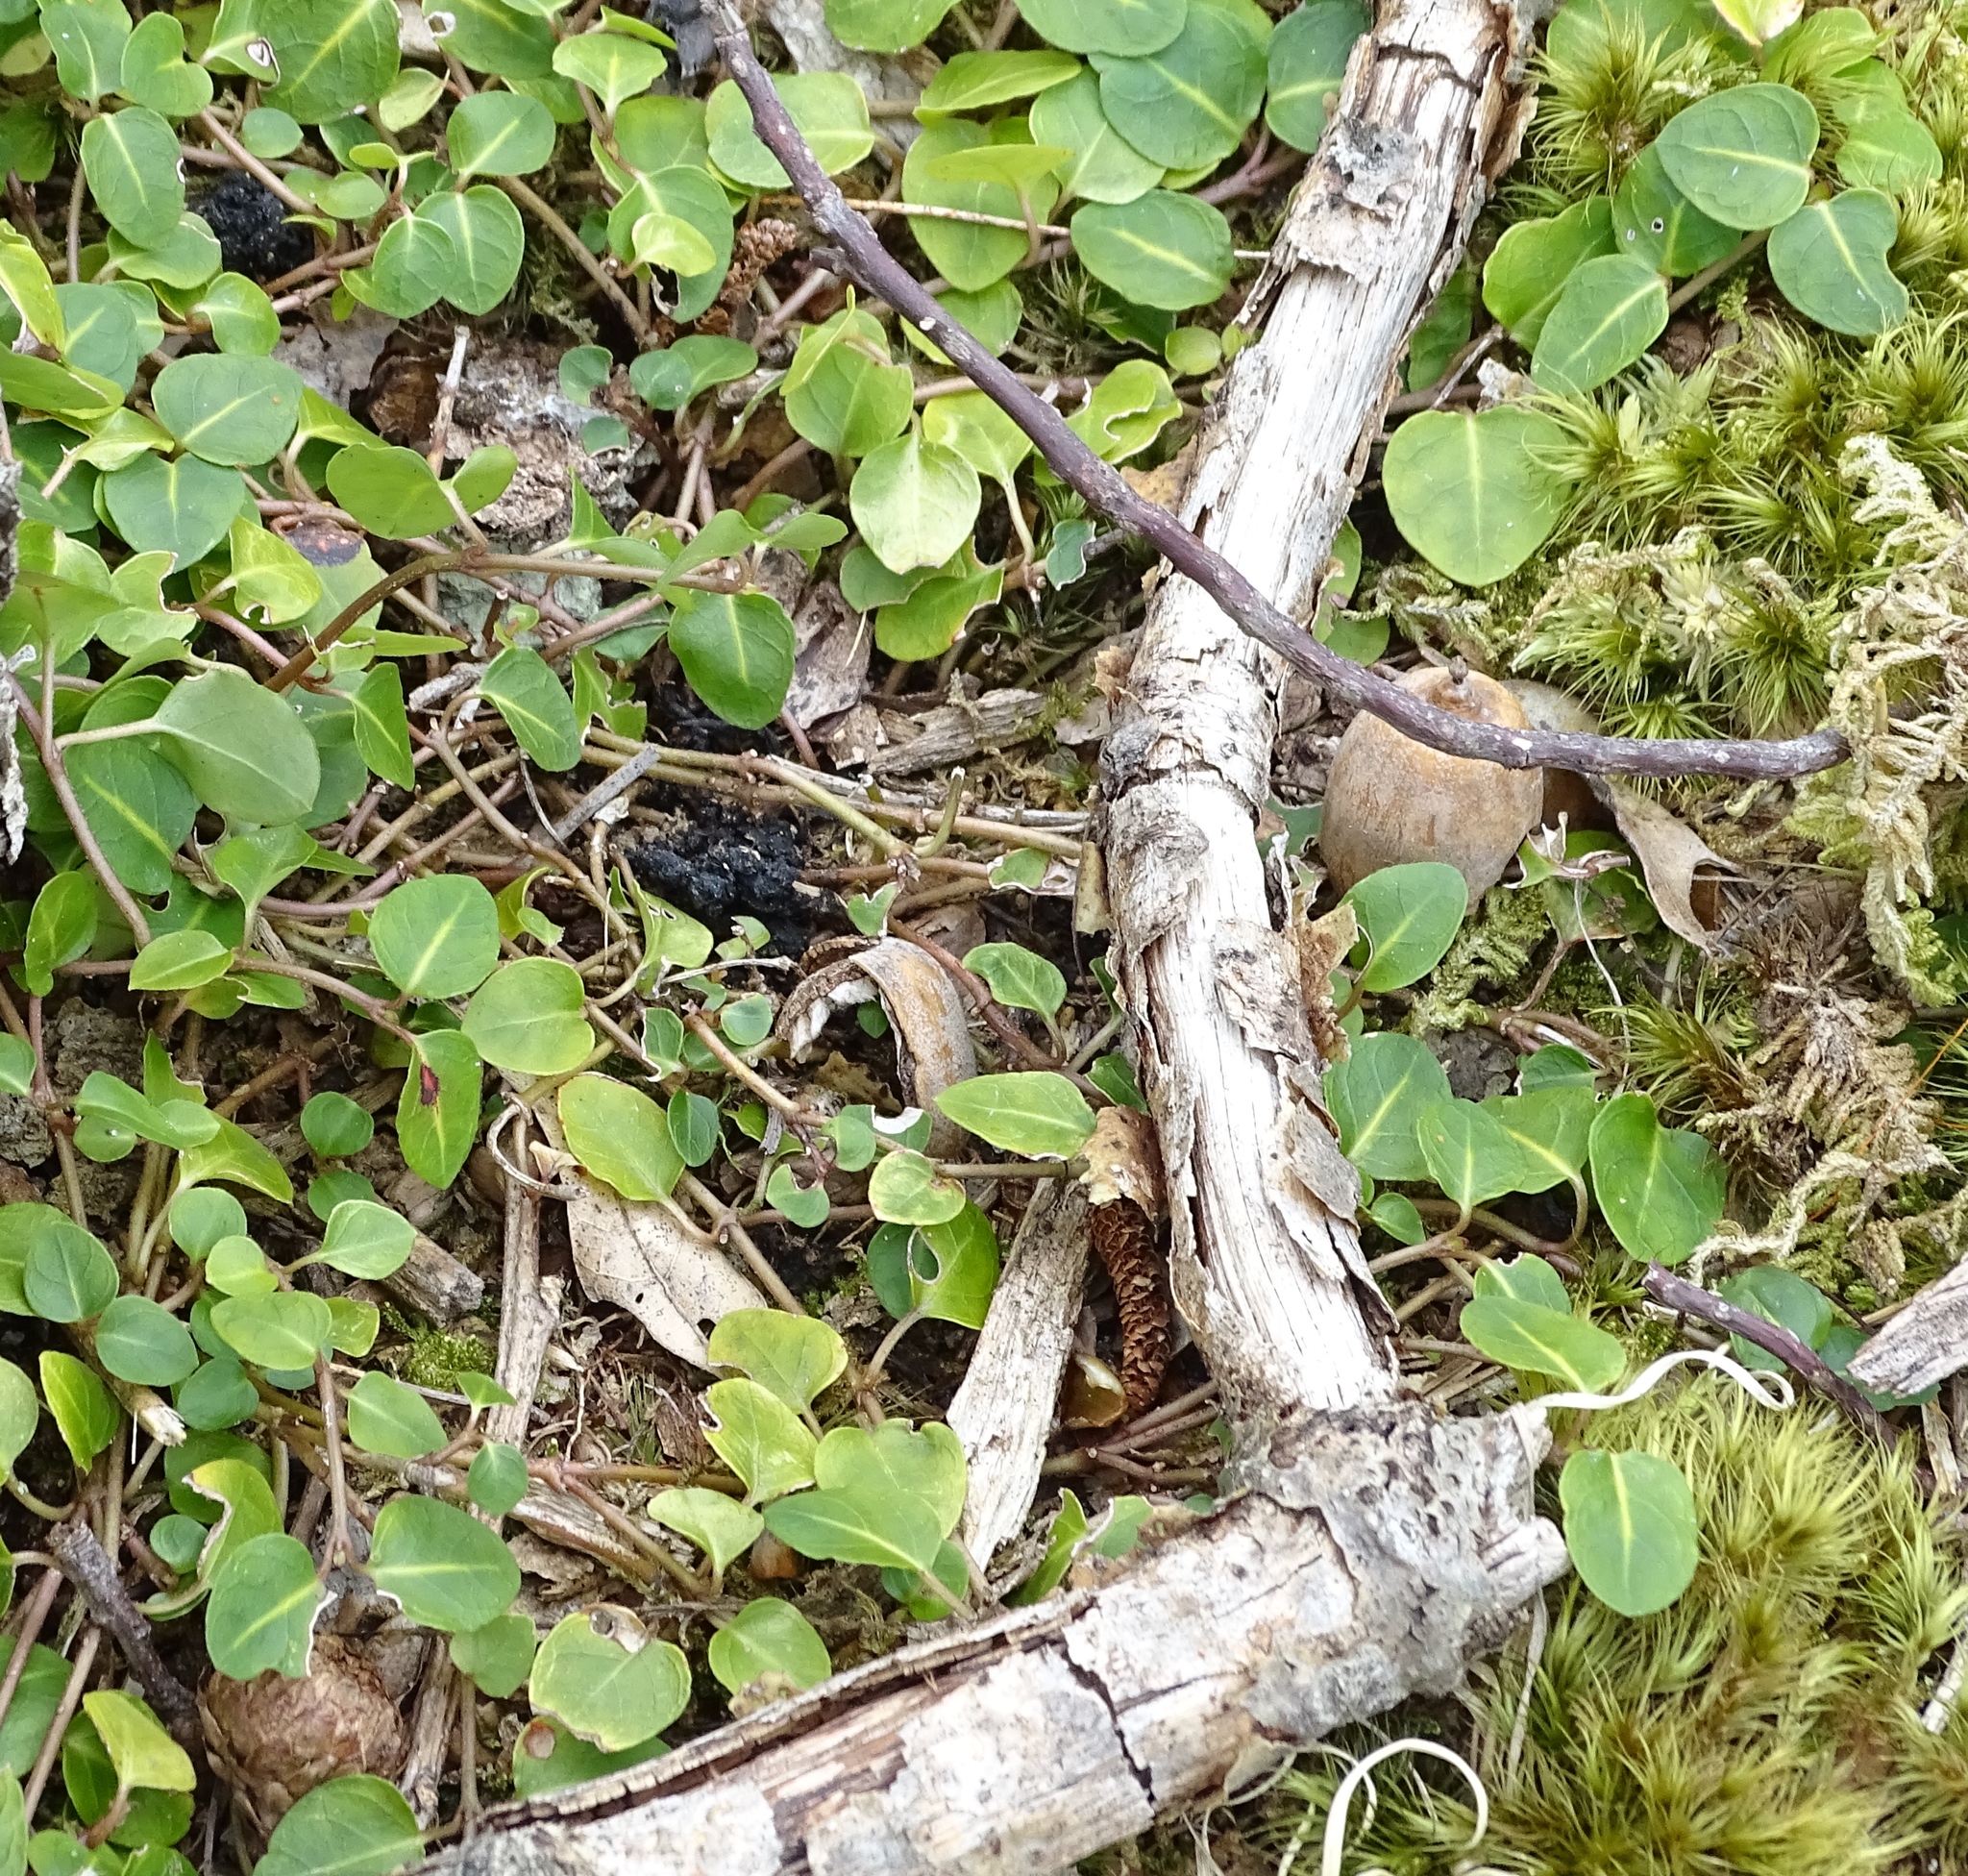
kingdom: Plantae
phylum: Tracheophyta
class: Magnoliopsida
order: Gentianales
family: Rubiaceae
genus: Mitchella
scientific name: Mitchella repens
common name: Partridge-berry
